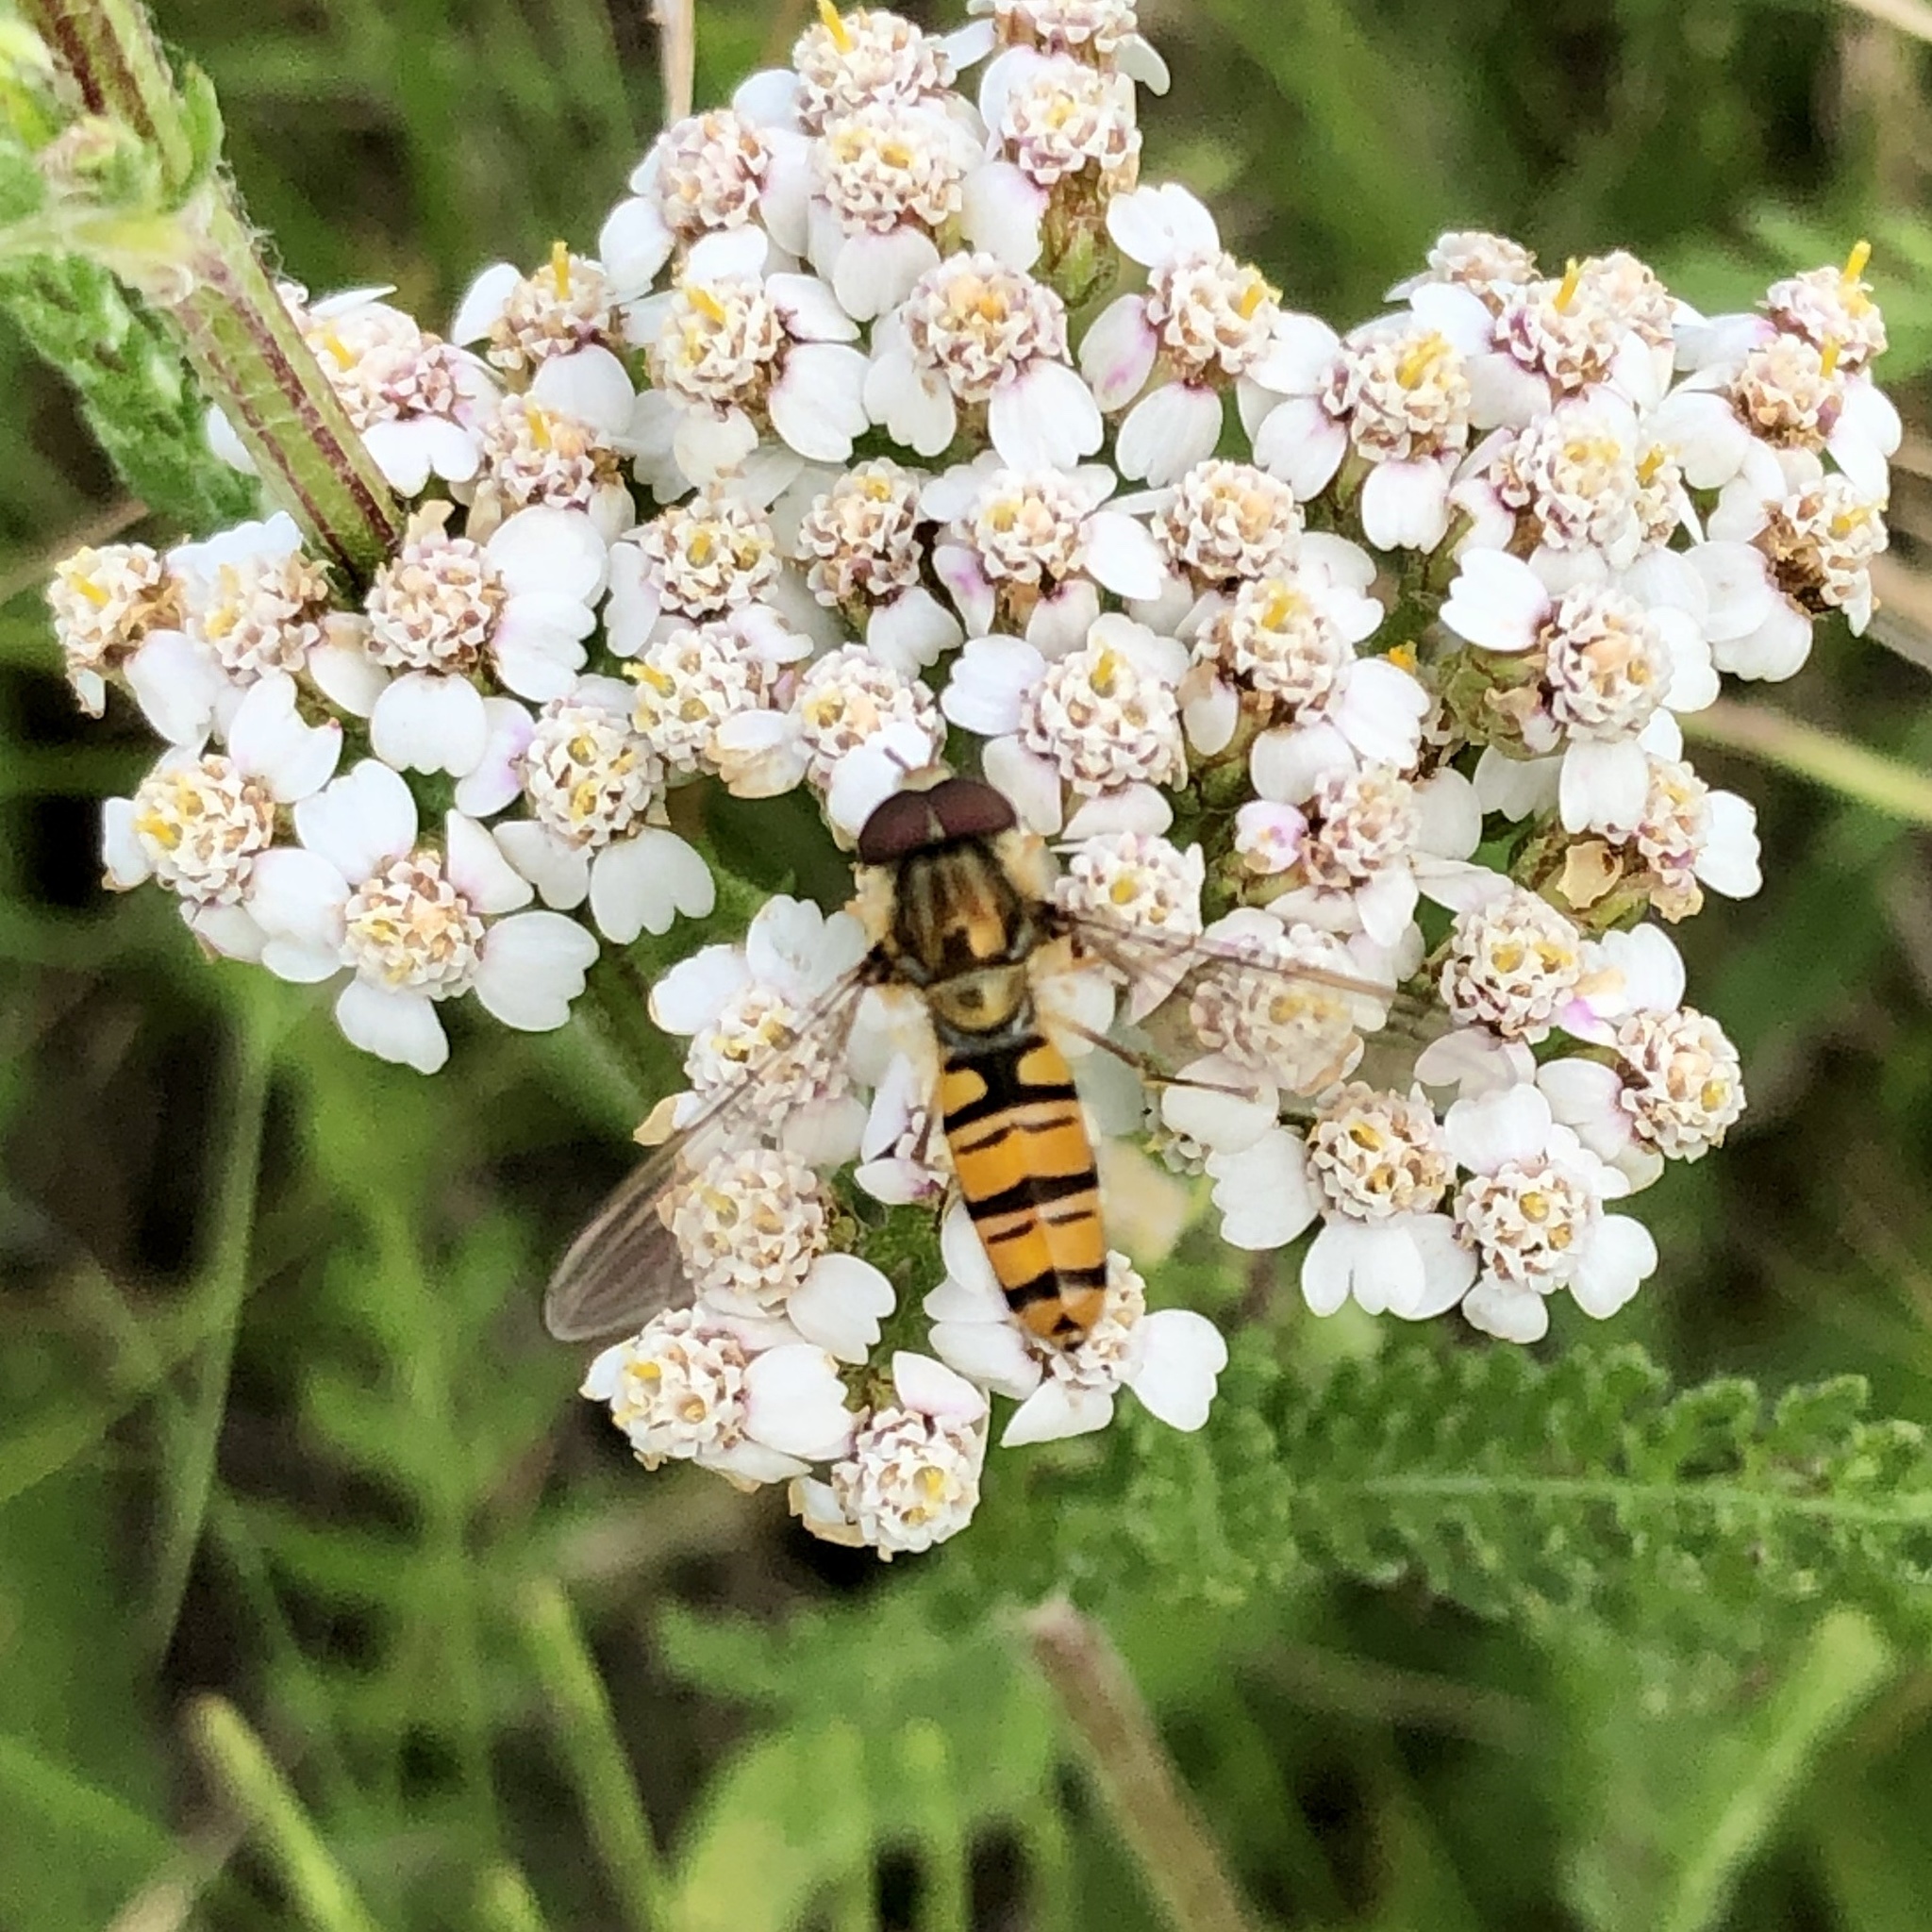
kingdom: Animalia
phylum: Arthropoda
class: Insecta
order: Diptera
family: Syrphidae
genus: Episyrphus
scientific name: Episyrphus balteatus
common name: Marmalade hoverfly
